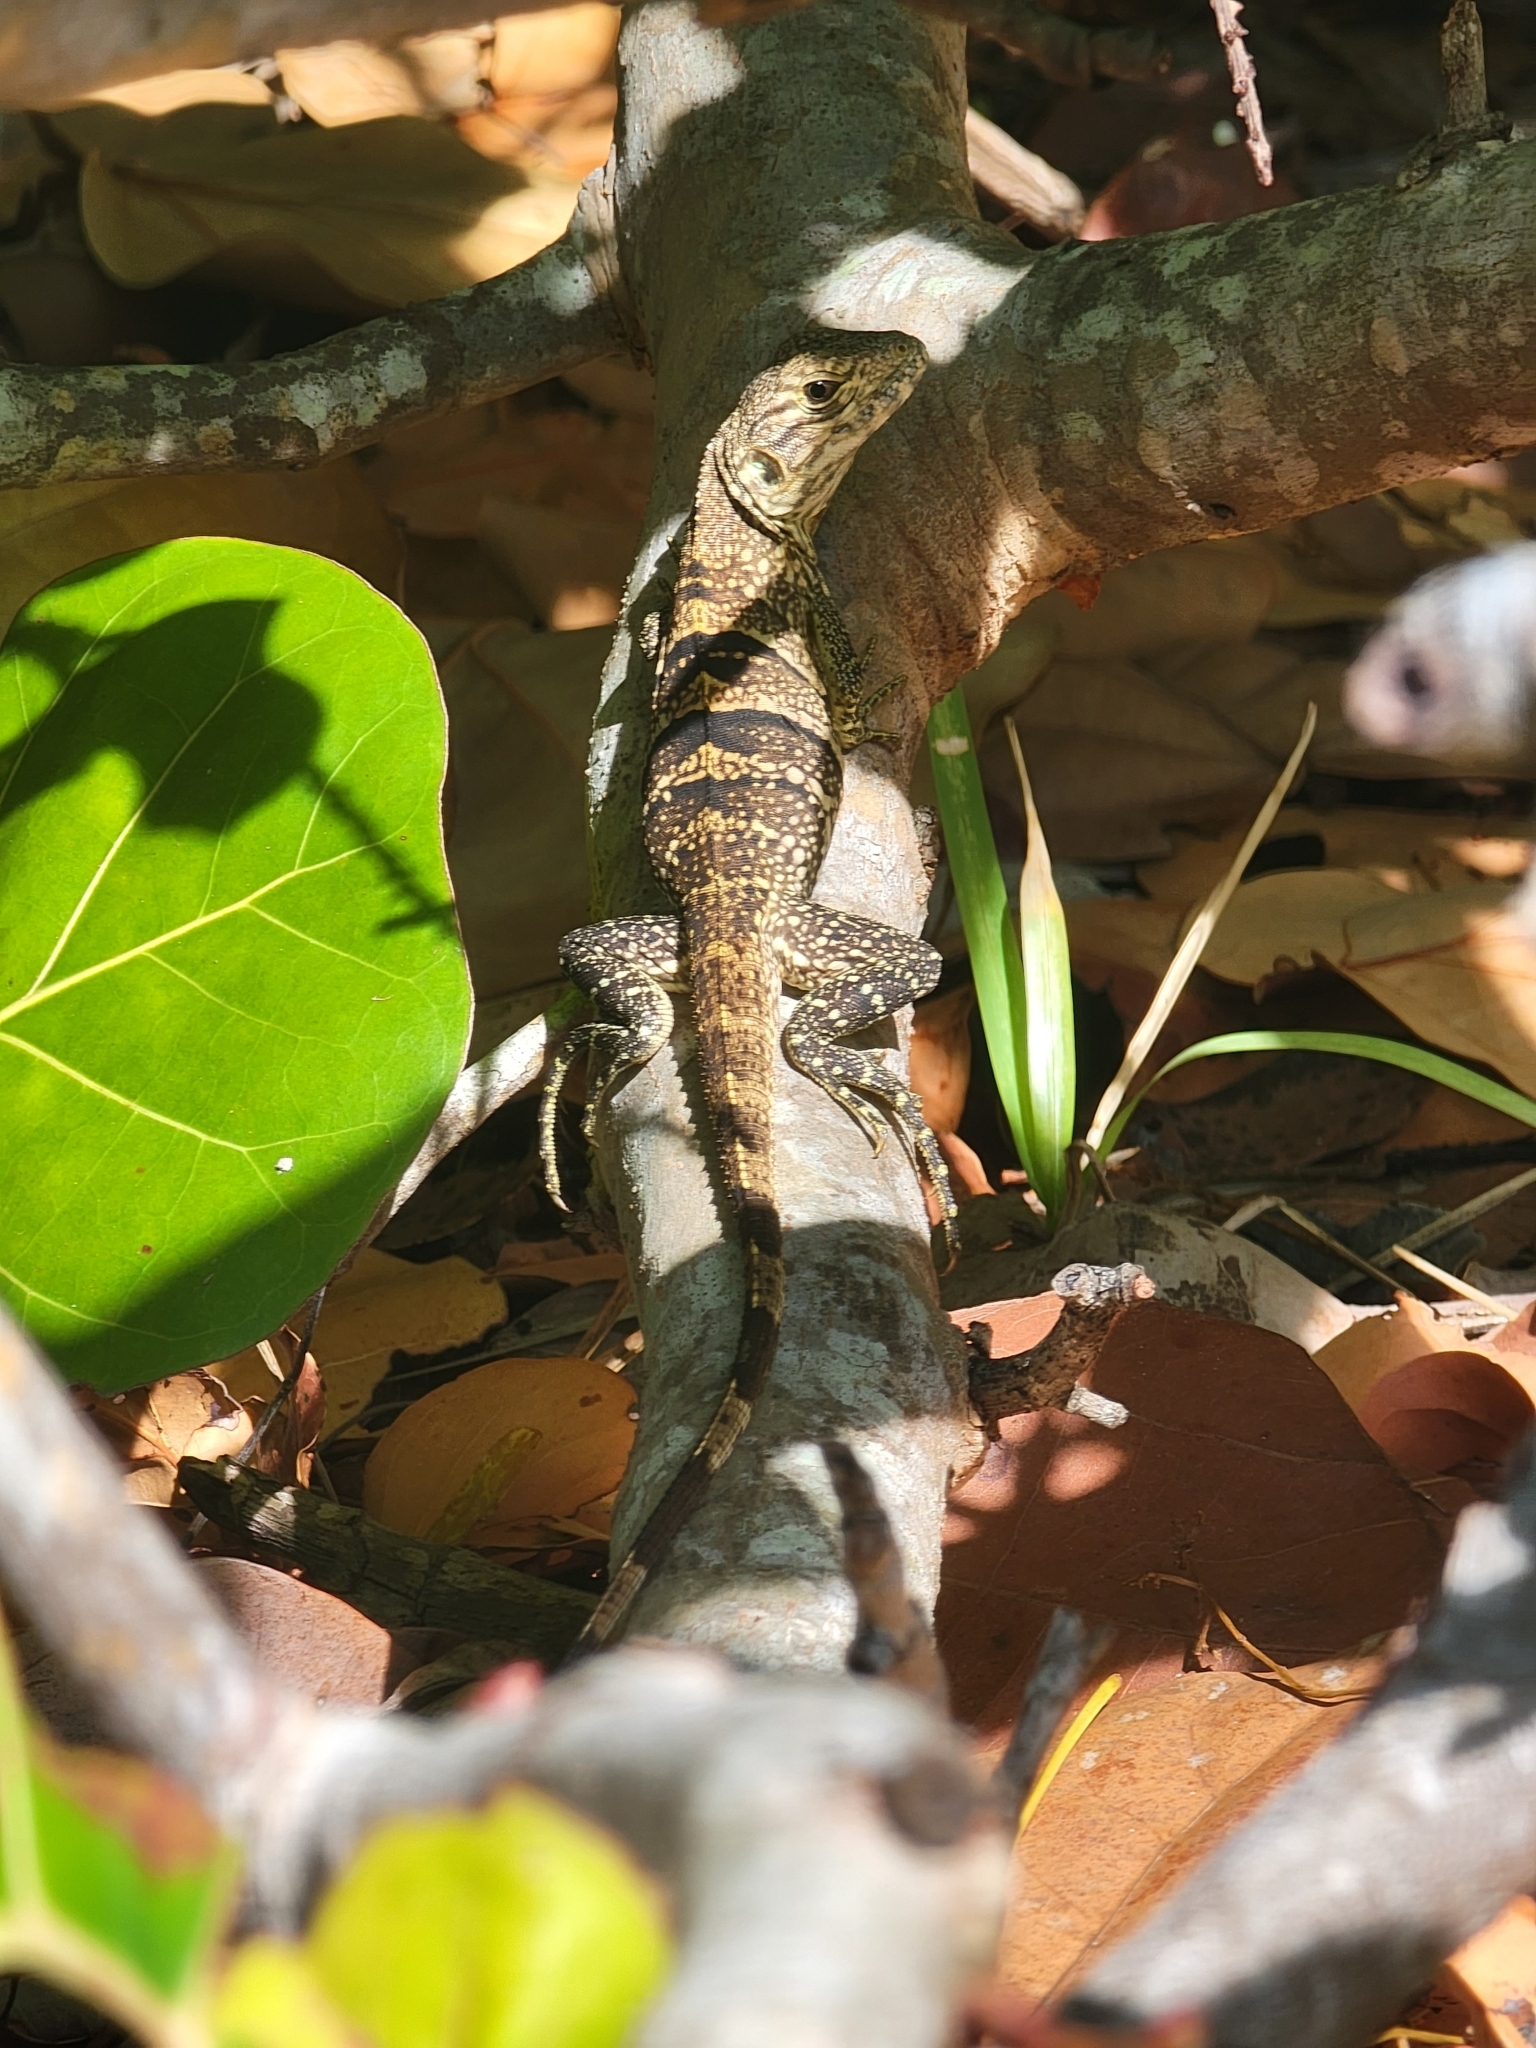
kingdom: Animalia
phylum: Chordata
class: Squamata
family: Iguanidae
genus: Ctenosaura
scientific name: Ctenosaura similis
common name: Black spiny-tailed iguana
